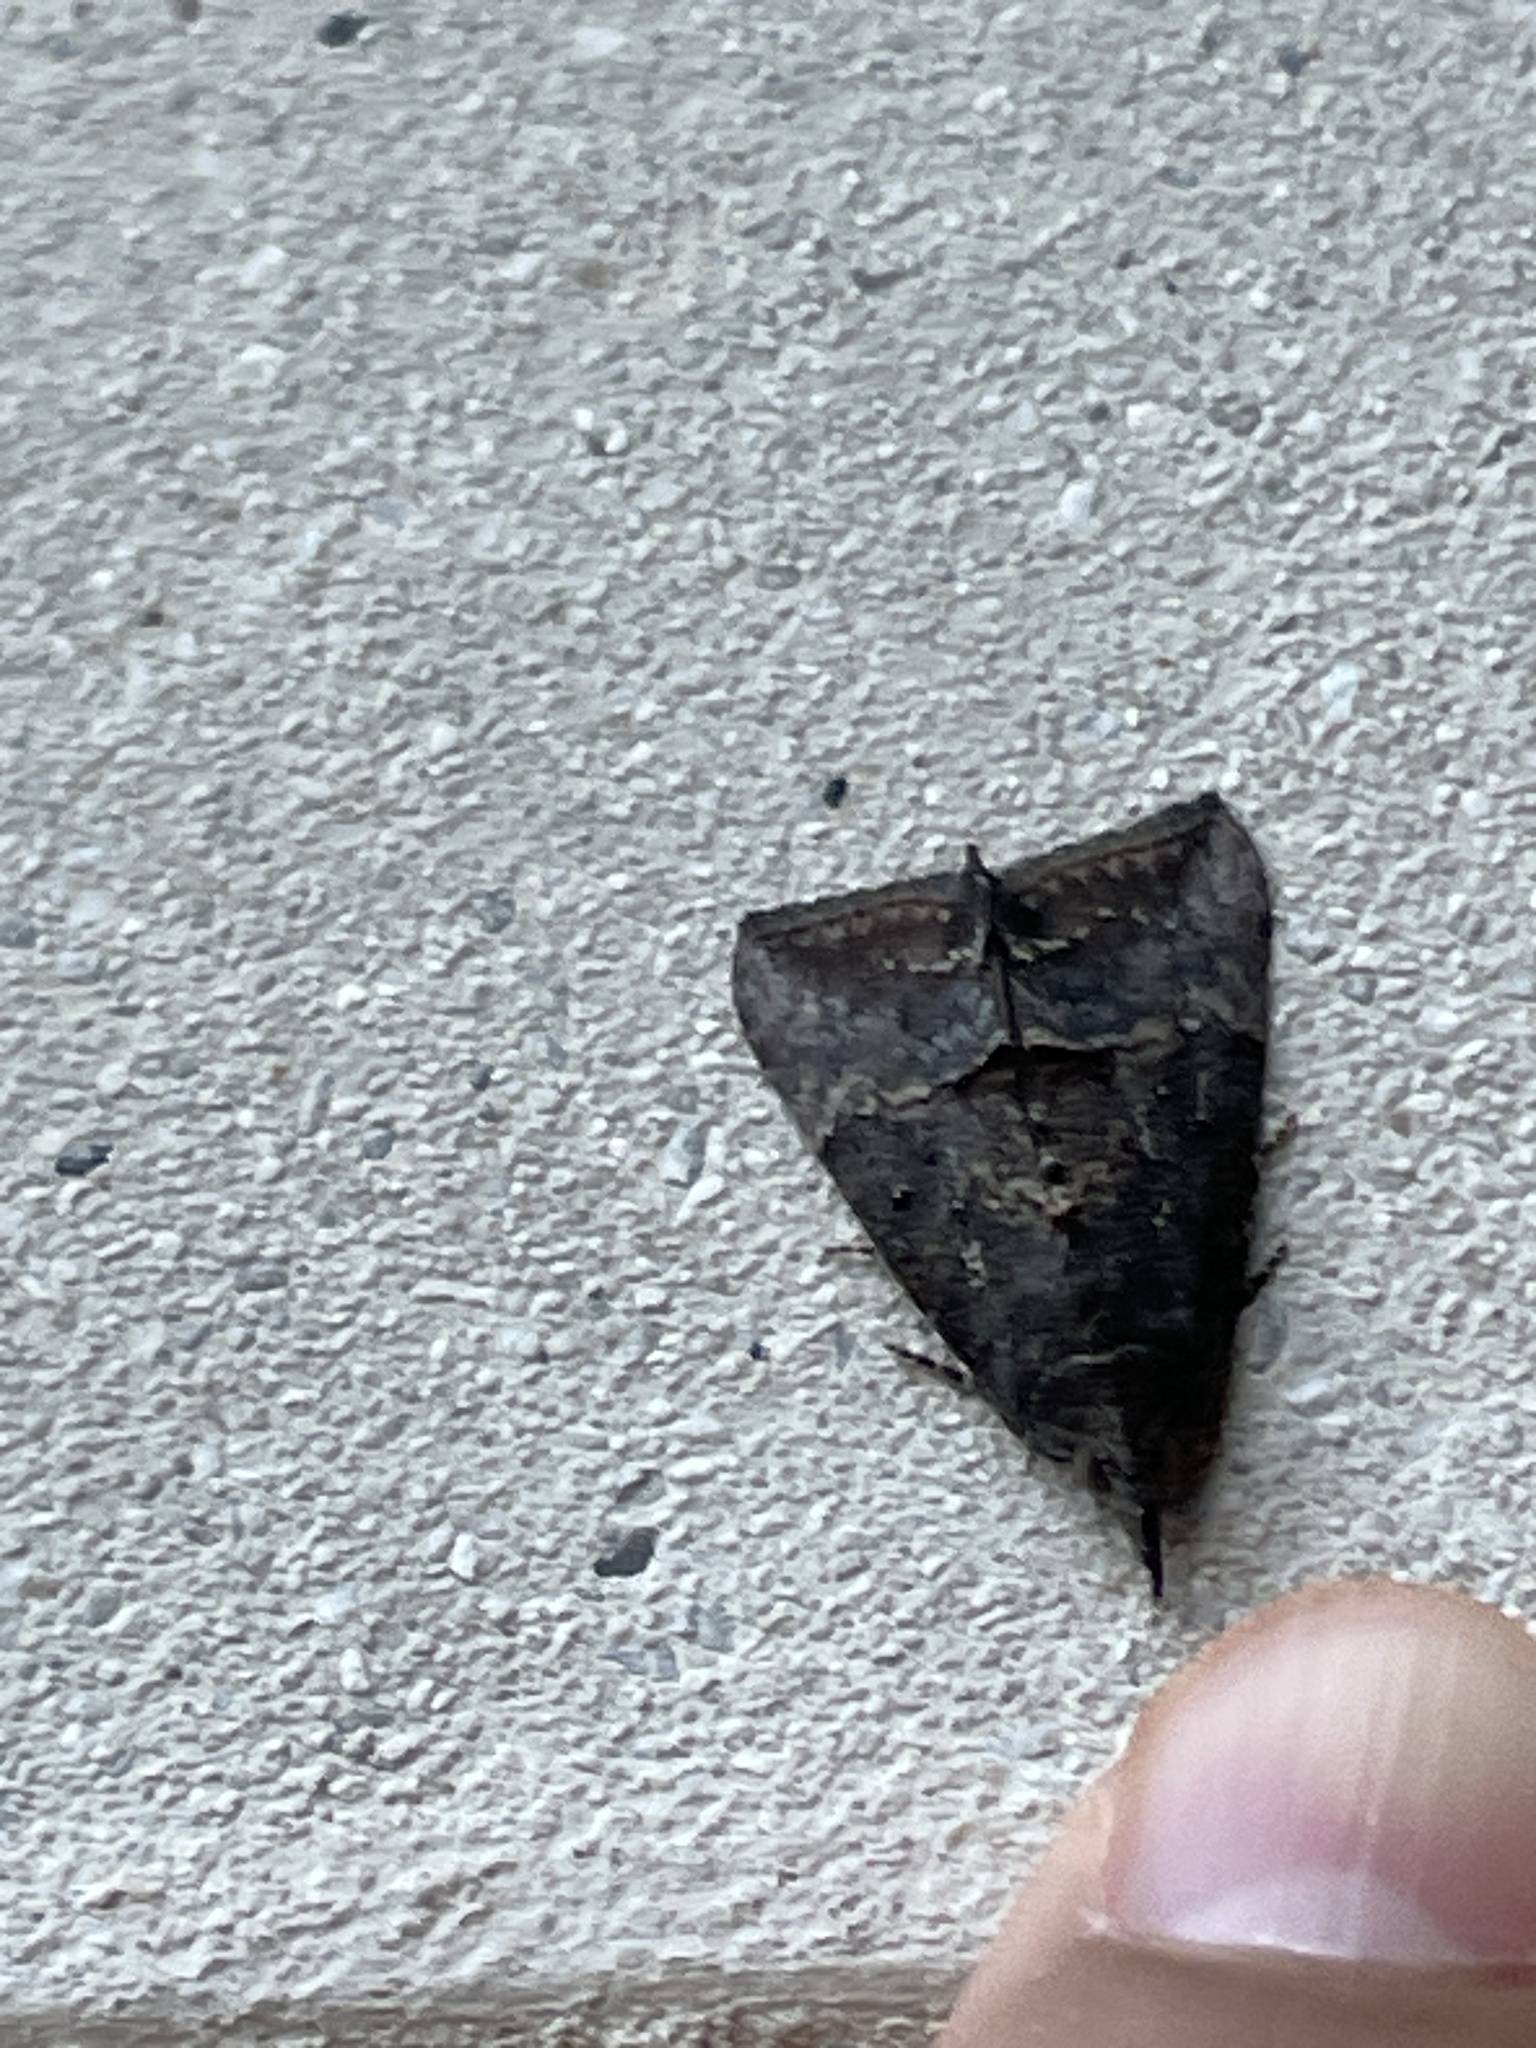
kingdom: Animalia
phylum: Arthropoda
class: Insecta
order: Lepidoptera
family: Erebidae
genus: Hypena
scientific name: Hypena scabra
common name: Green cloverworm
